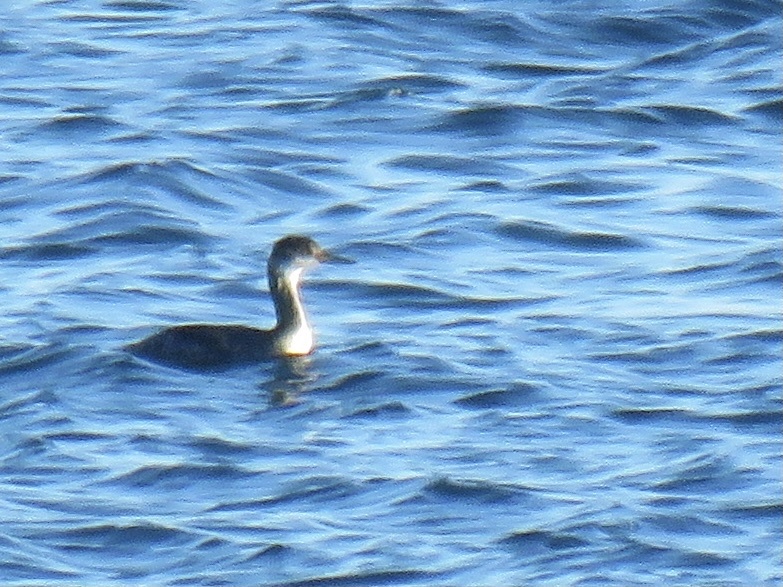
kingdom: Animalia
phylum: Chordata
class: Aves
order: Podicipediformes
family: Podicipedidae
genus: Podiceps
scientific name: Podiceps grisegena
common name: Red-necked grebe
